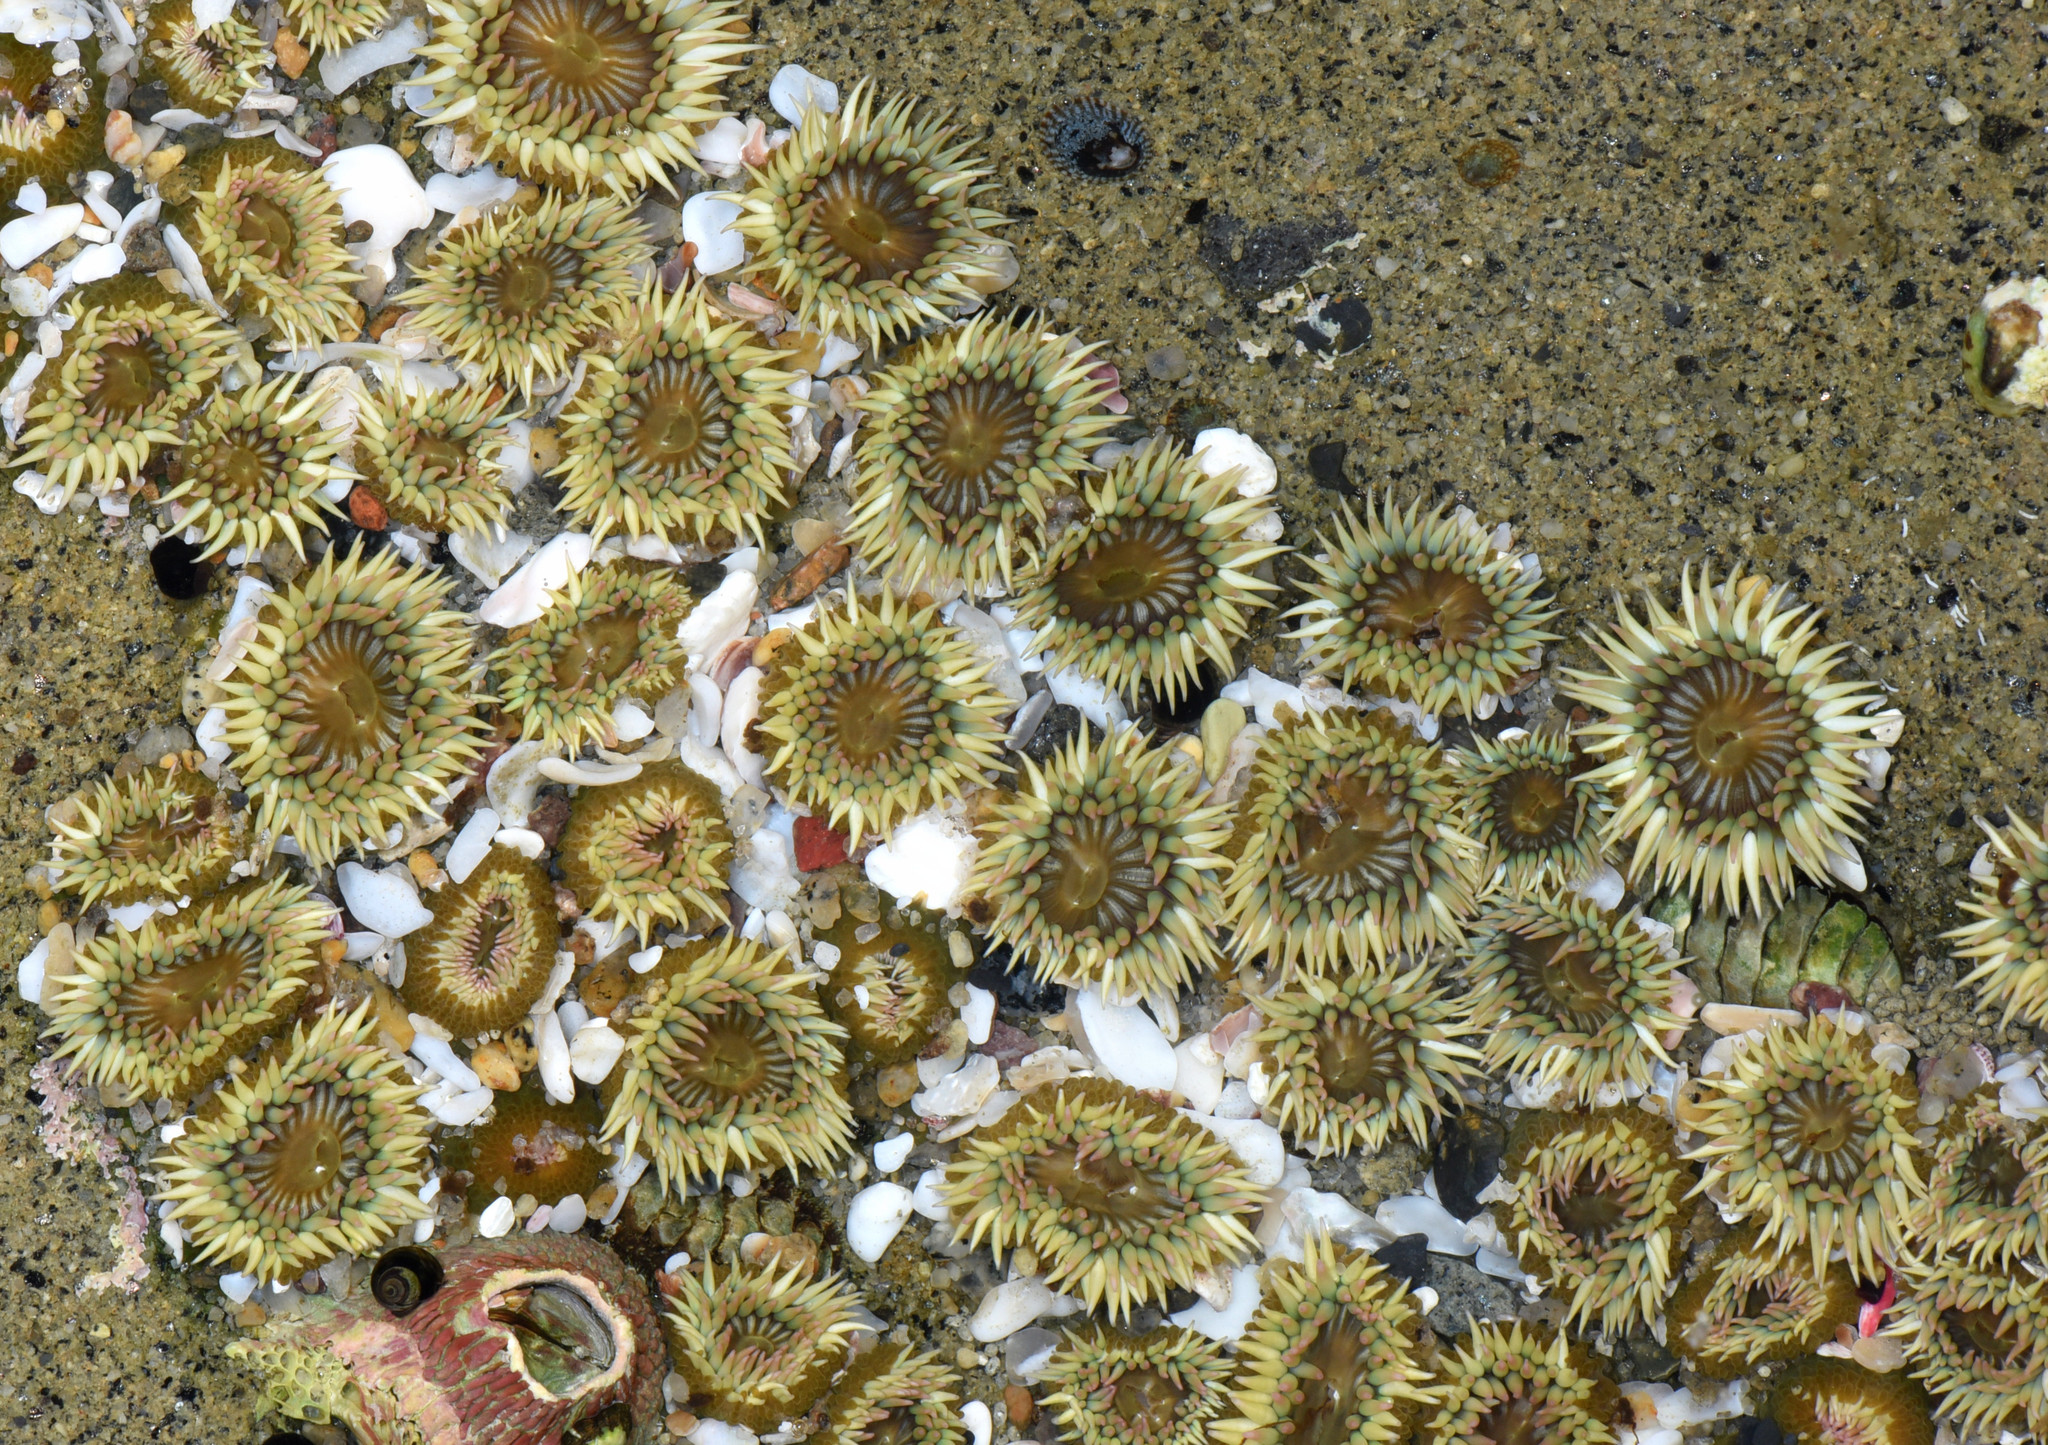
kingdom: Animalia
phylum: Cnidaria
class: Anthozoa
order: Actiniaria
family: Actiniidae
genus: Anthopleura
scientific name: Anthopleura elegantissima
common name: Clonal anemone
